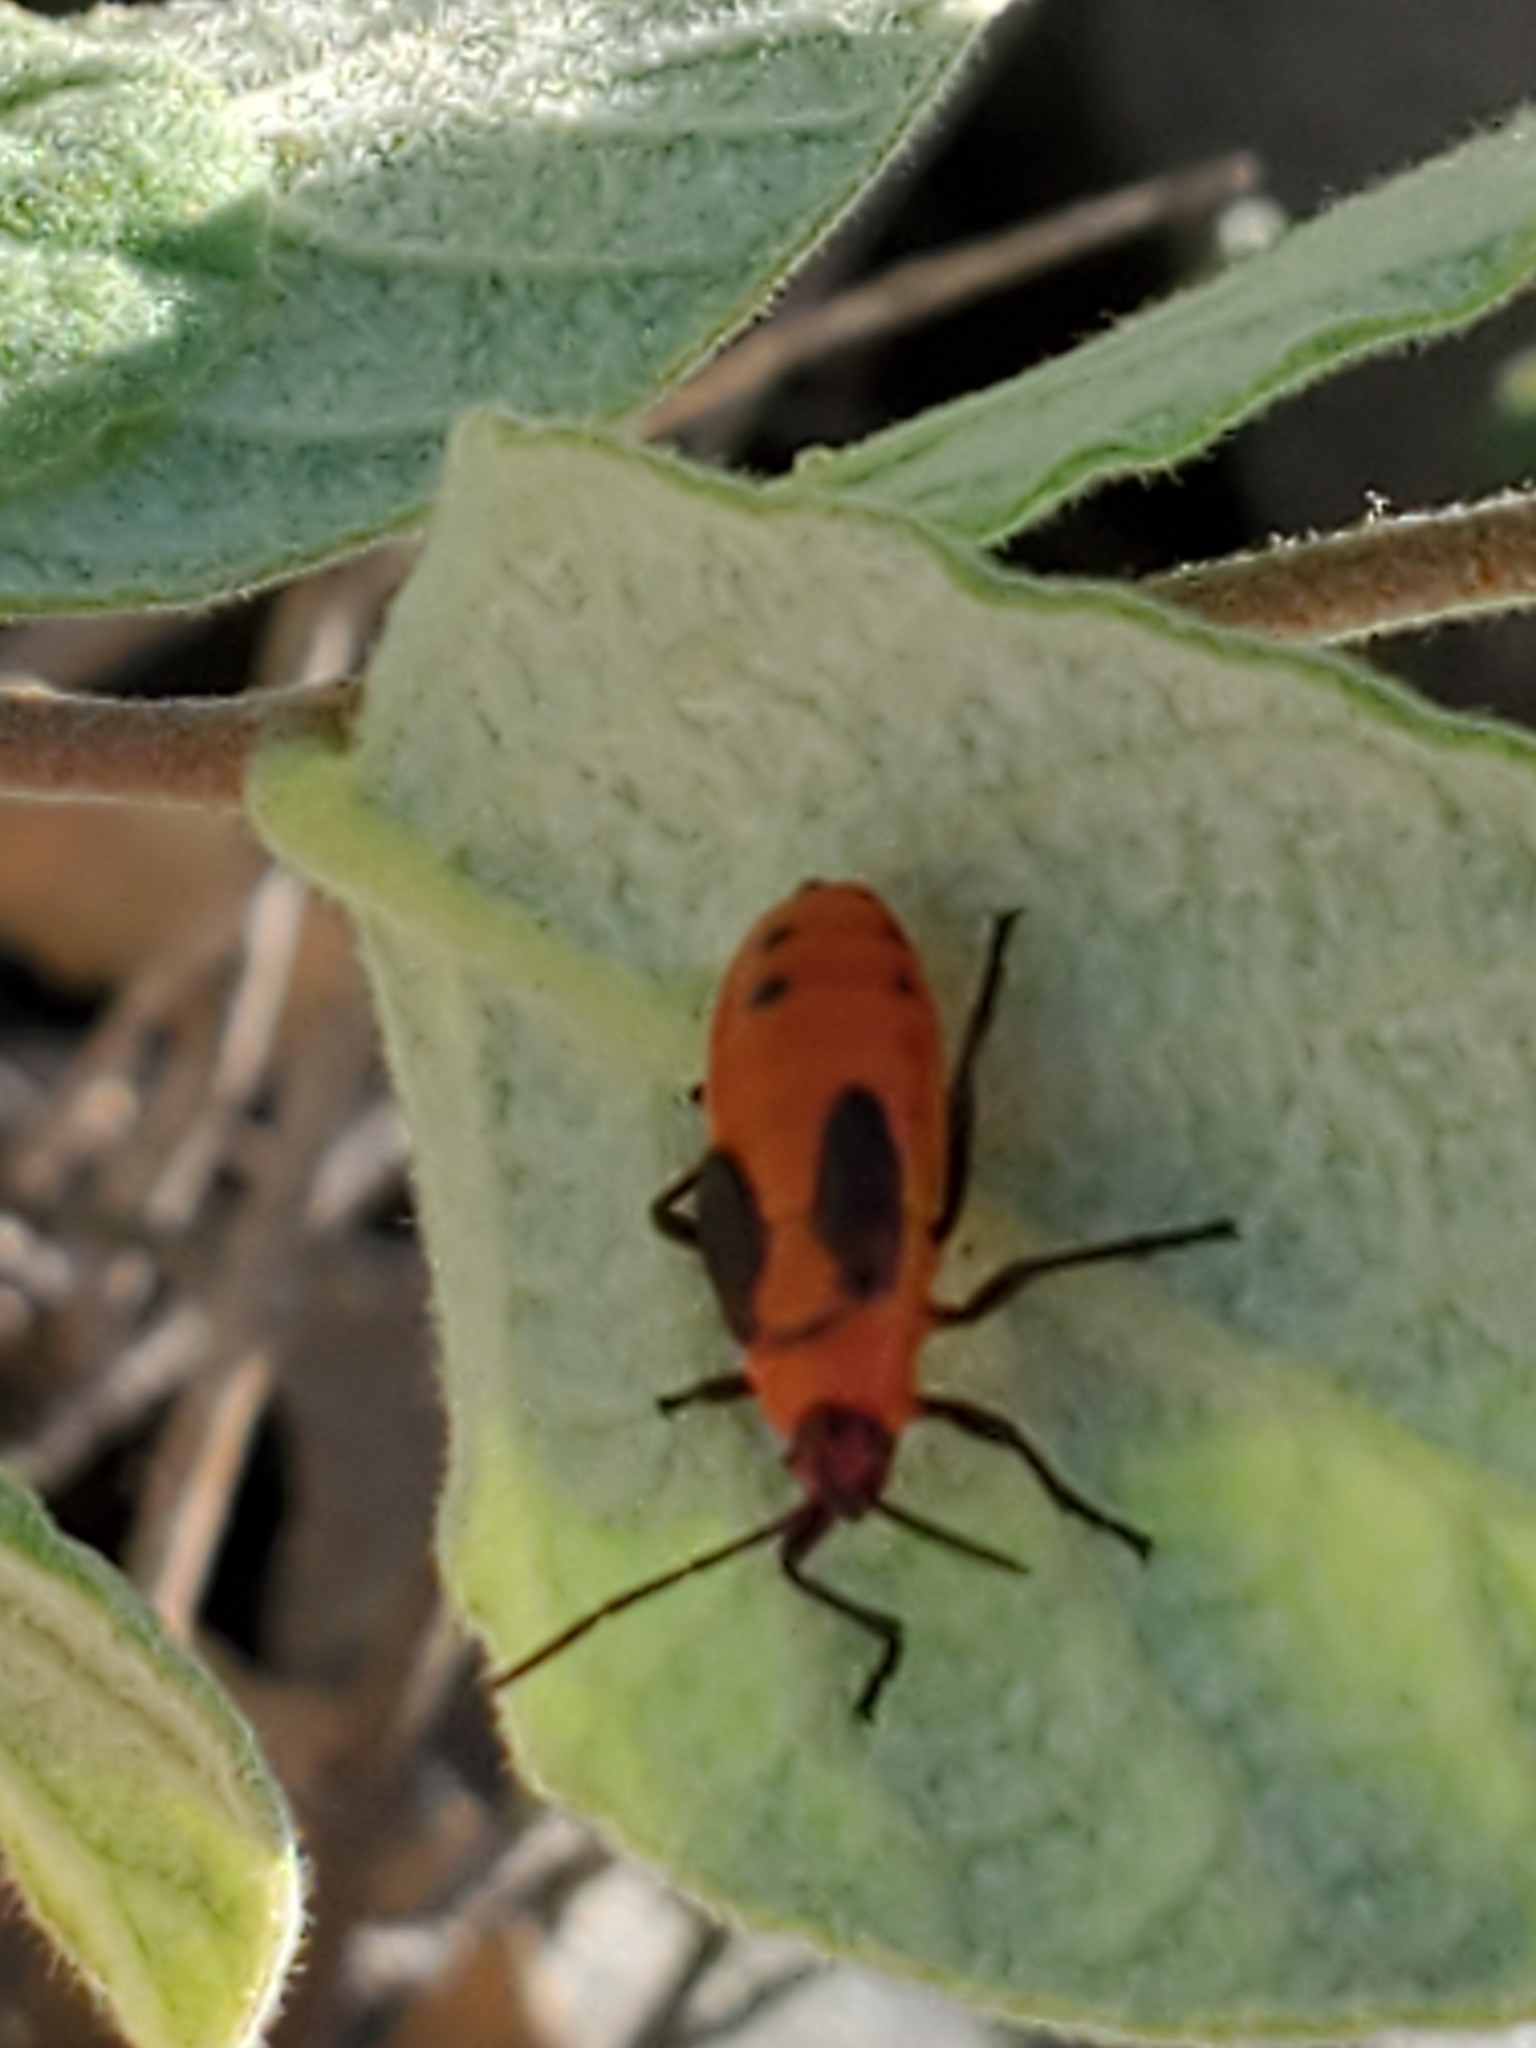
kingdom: Animalia
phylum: Arthropoda
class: Insecta
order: Hemiptera
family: Lygaeidae
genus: Oncopeltus
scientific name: Oncopeltus fasciatus
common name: Large milkweed bug
